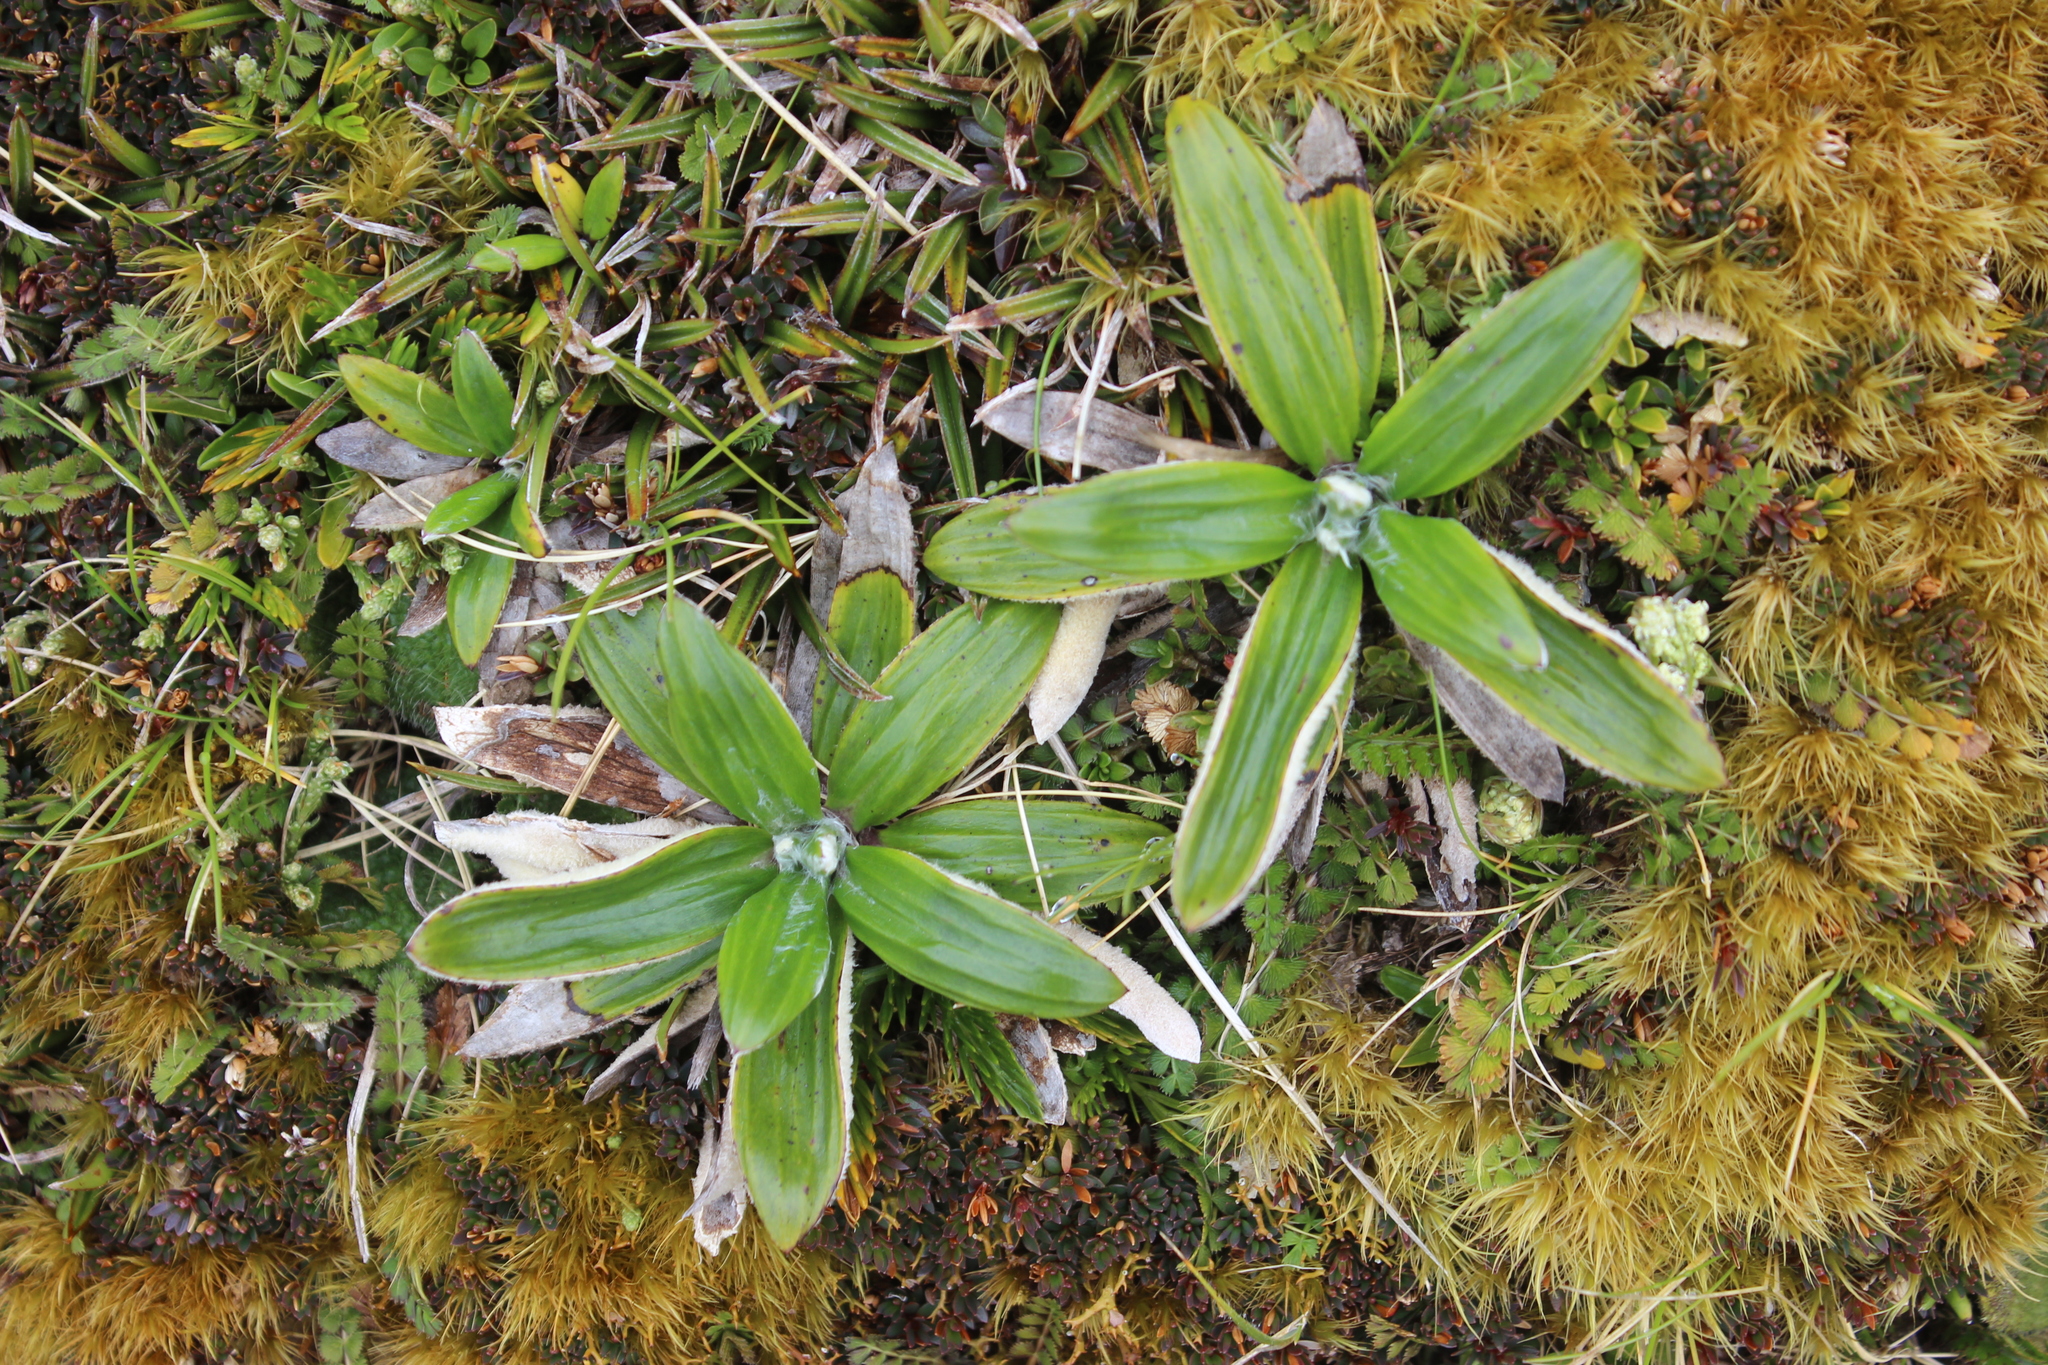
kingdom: Plantae
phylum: Tracheophyta
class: Magnoliopsida
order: Asterales
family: Asteraceae
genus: Celmisia
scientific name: Celmisia spectabilis
